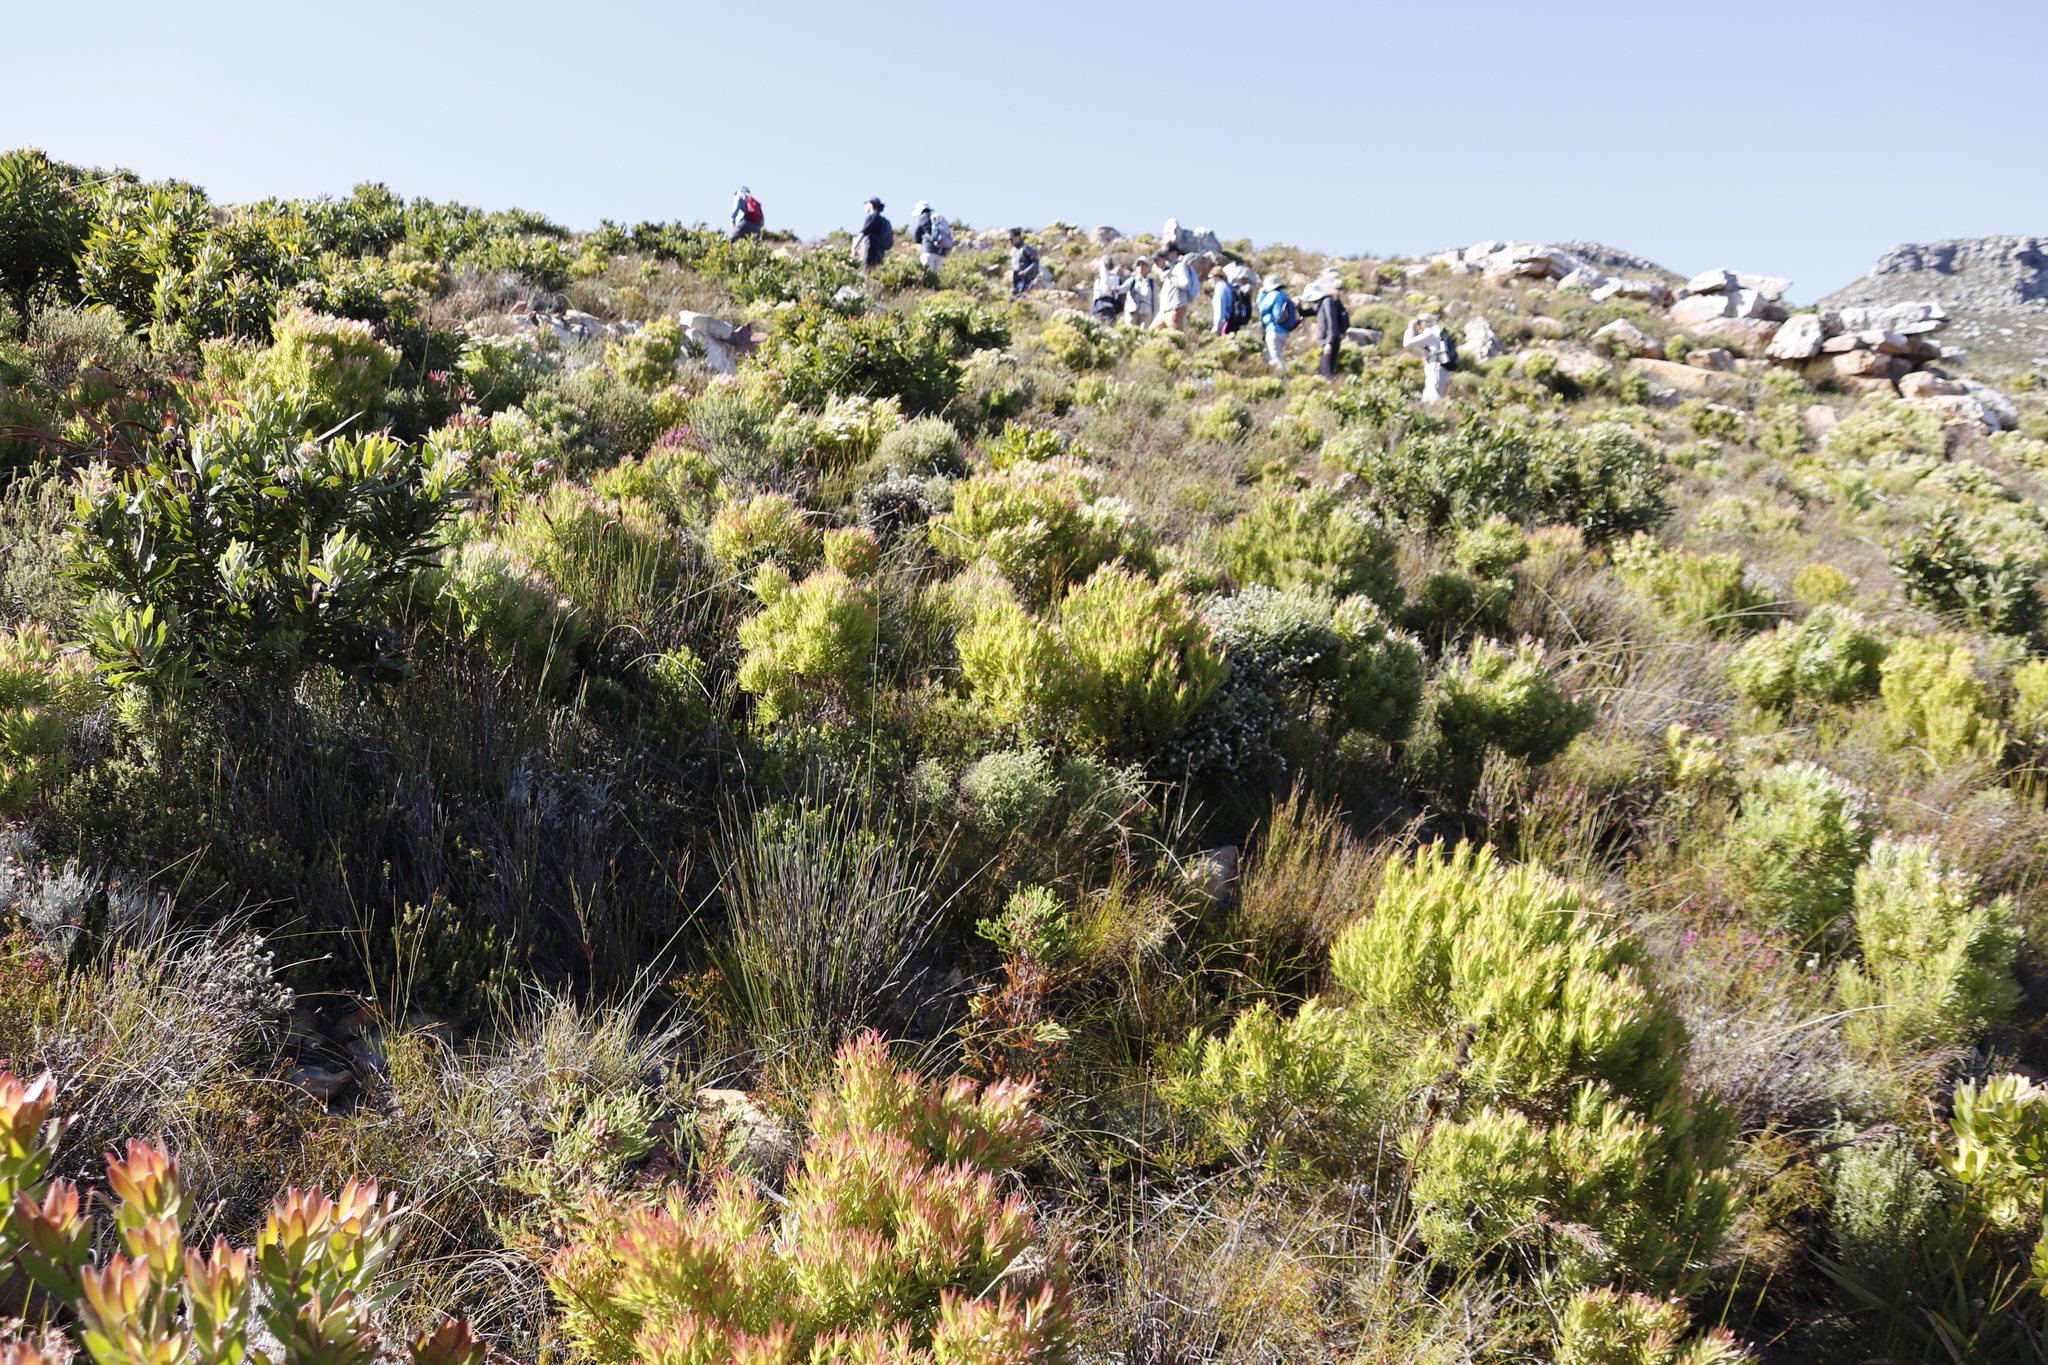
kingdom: Plantae
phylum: Tracheophyta
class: Magnoliopsida
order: Proteales
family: Proteaceae
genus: Leucadendron
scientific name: Leucadendron xanthoconus
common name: Sickle-leaf conebush
